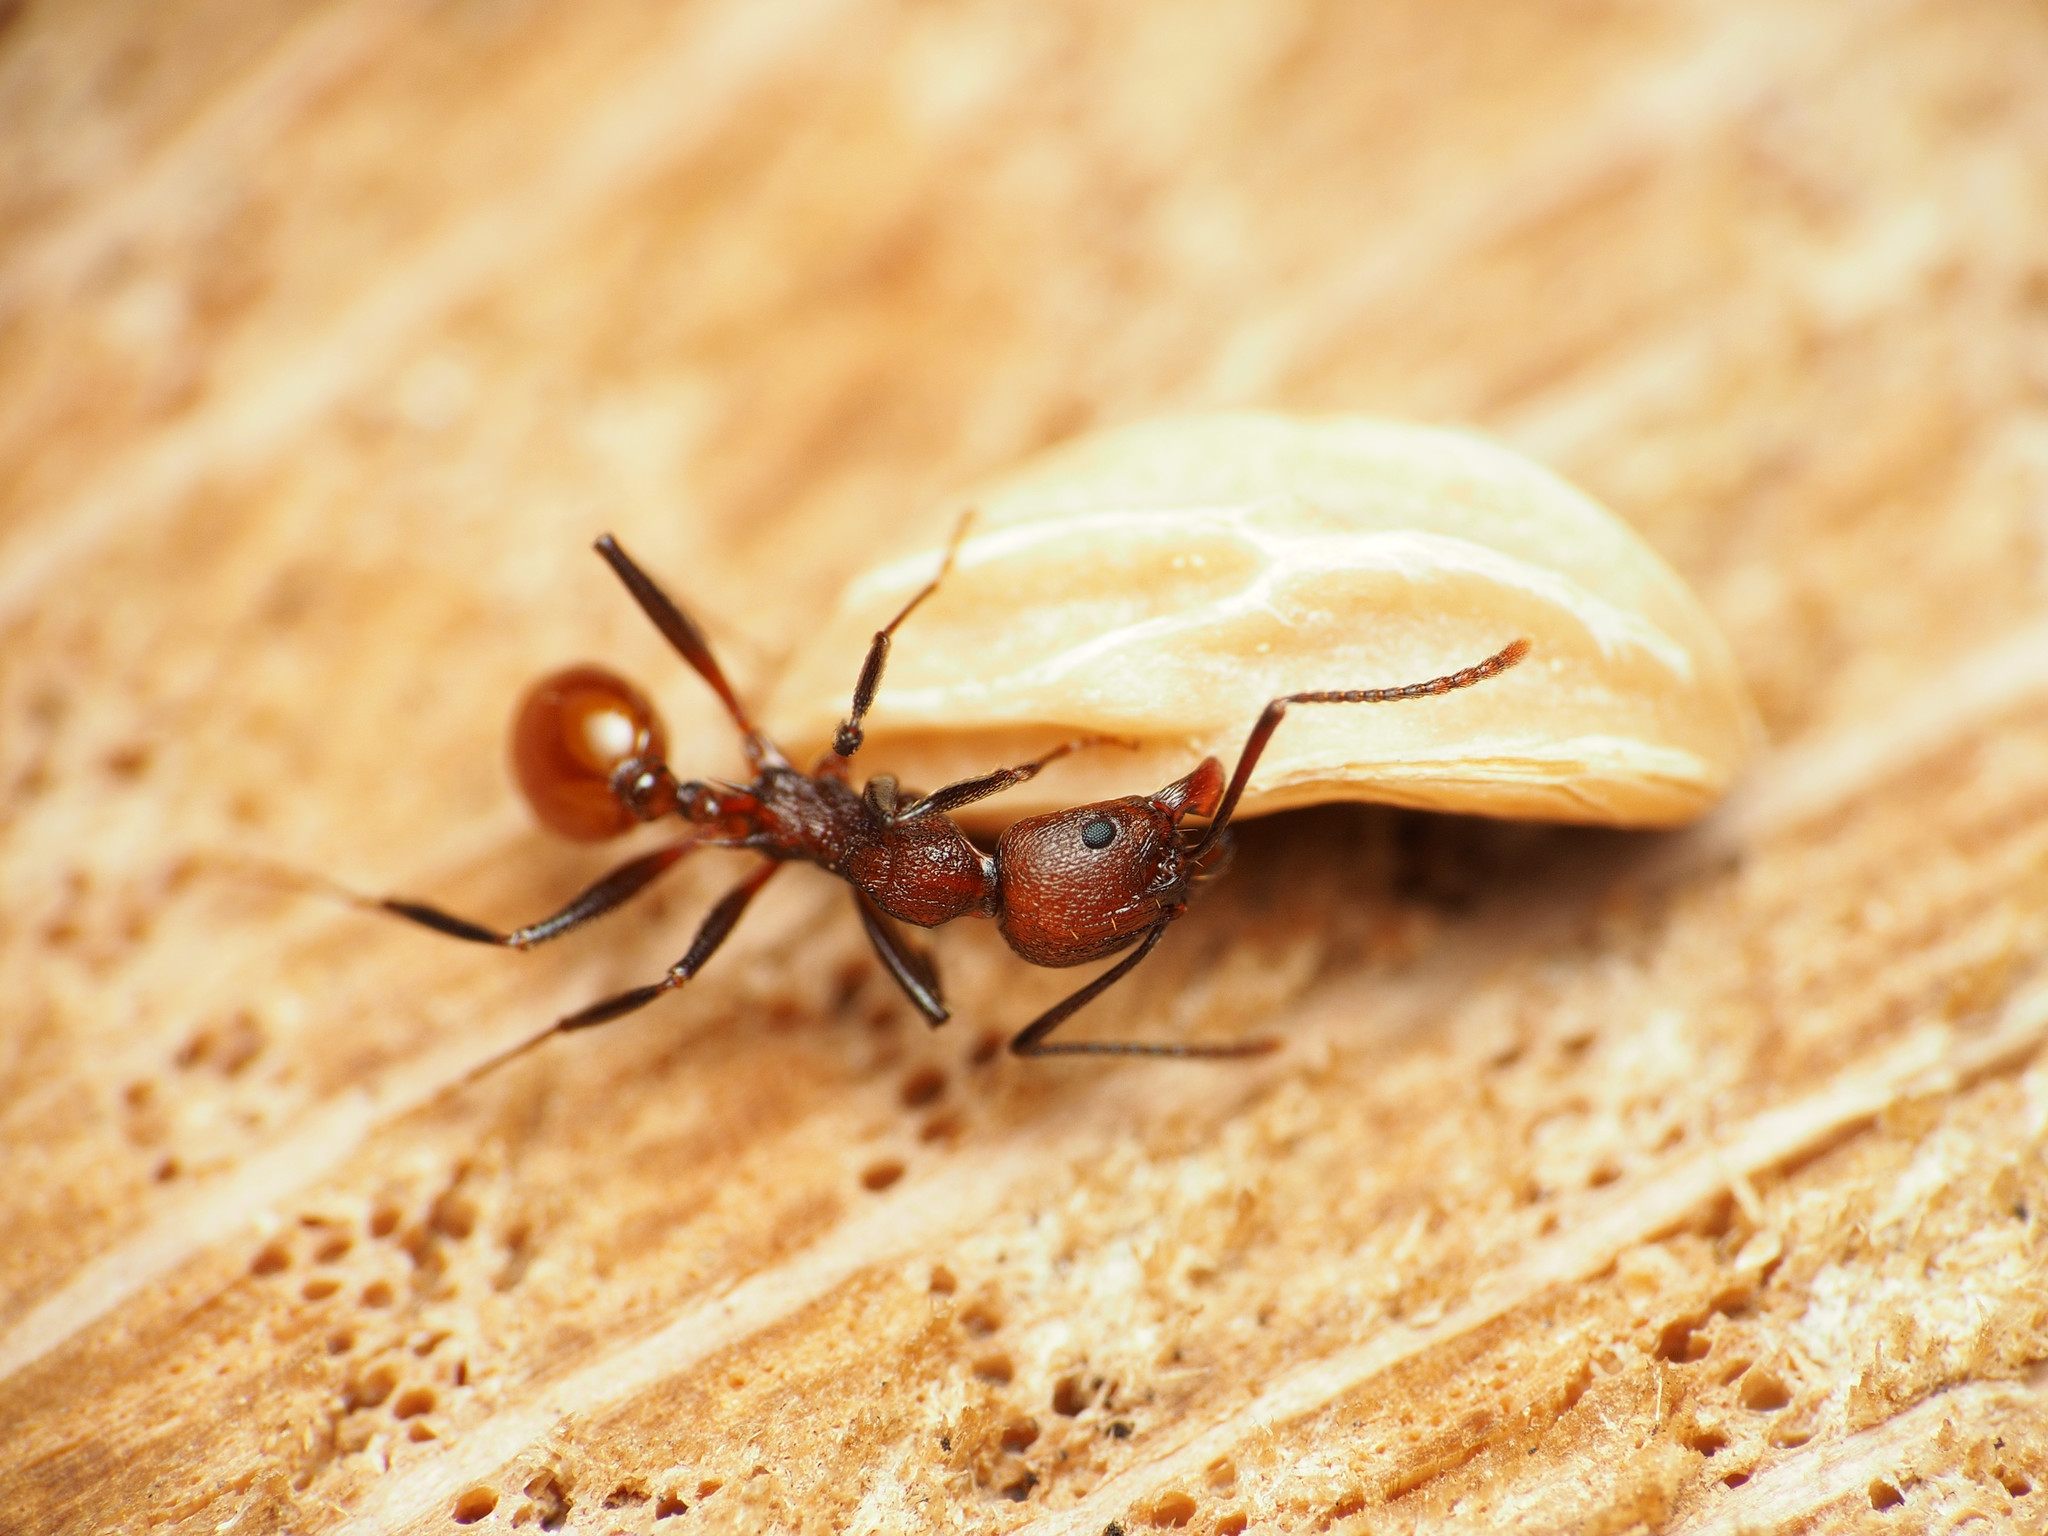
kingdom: Animalia
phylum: Arthropoda
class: Insecta
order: Hymenoptera
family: Formicidae
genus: Aphaenogaster
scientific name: Aphaenogaster tennesseensis
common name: Tennessee thread-waisted ant
